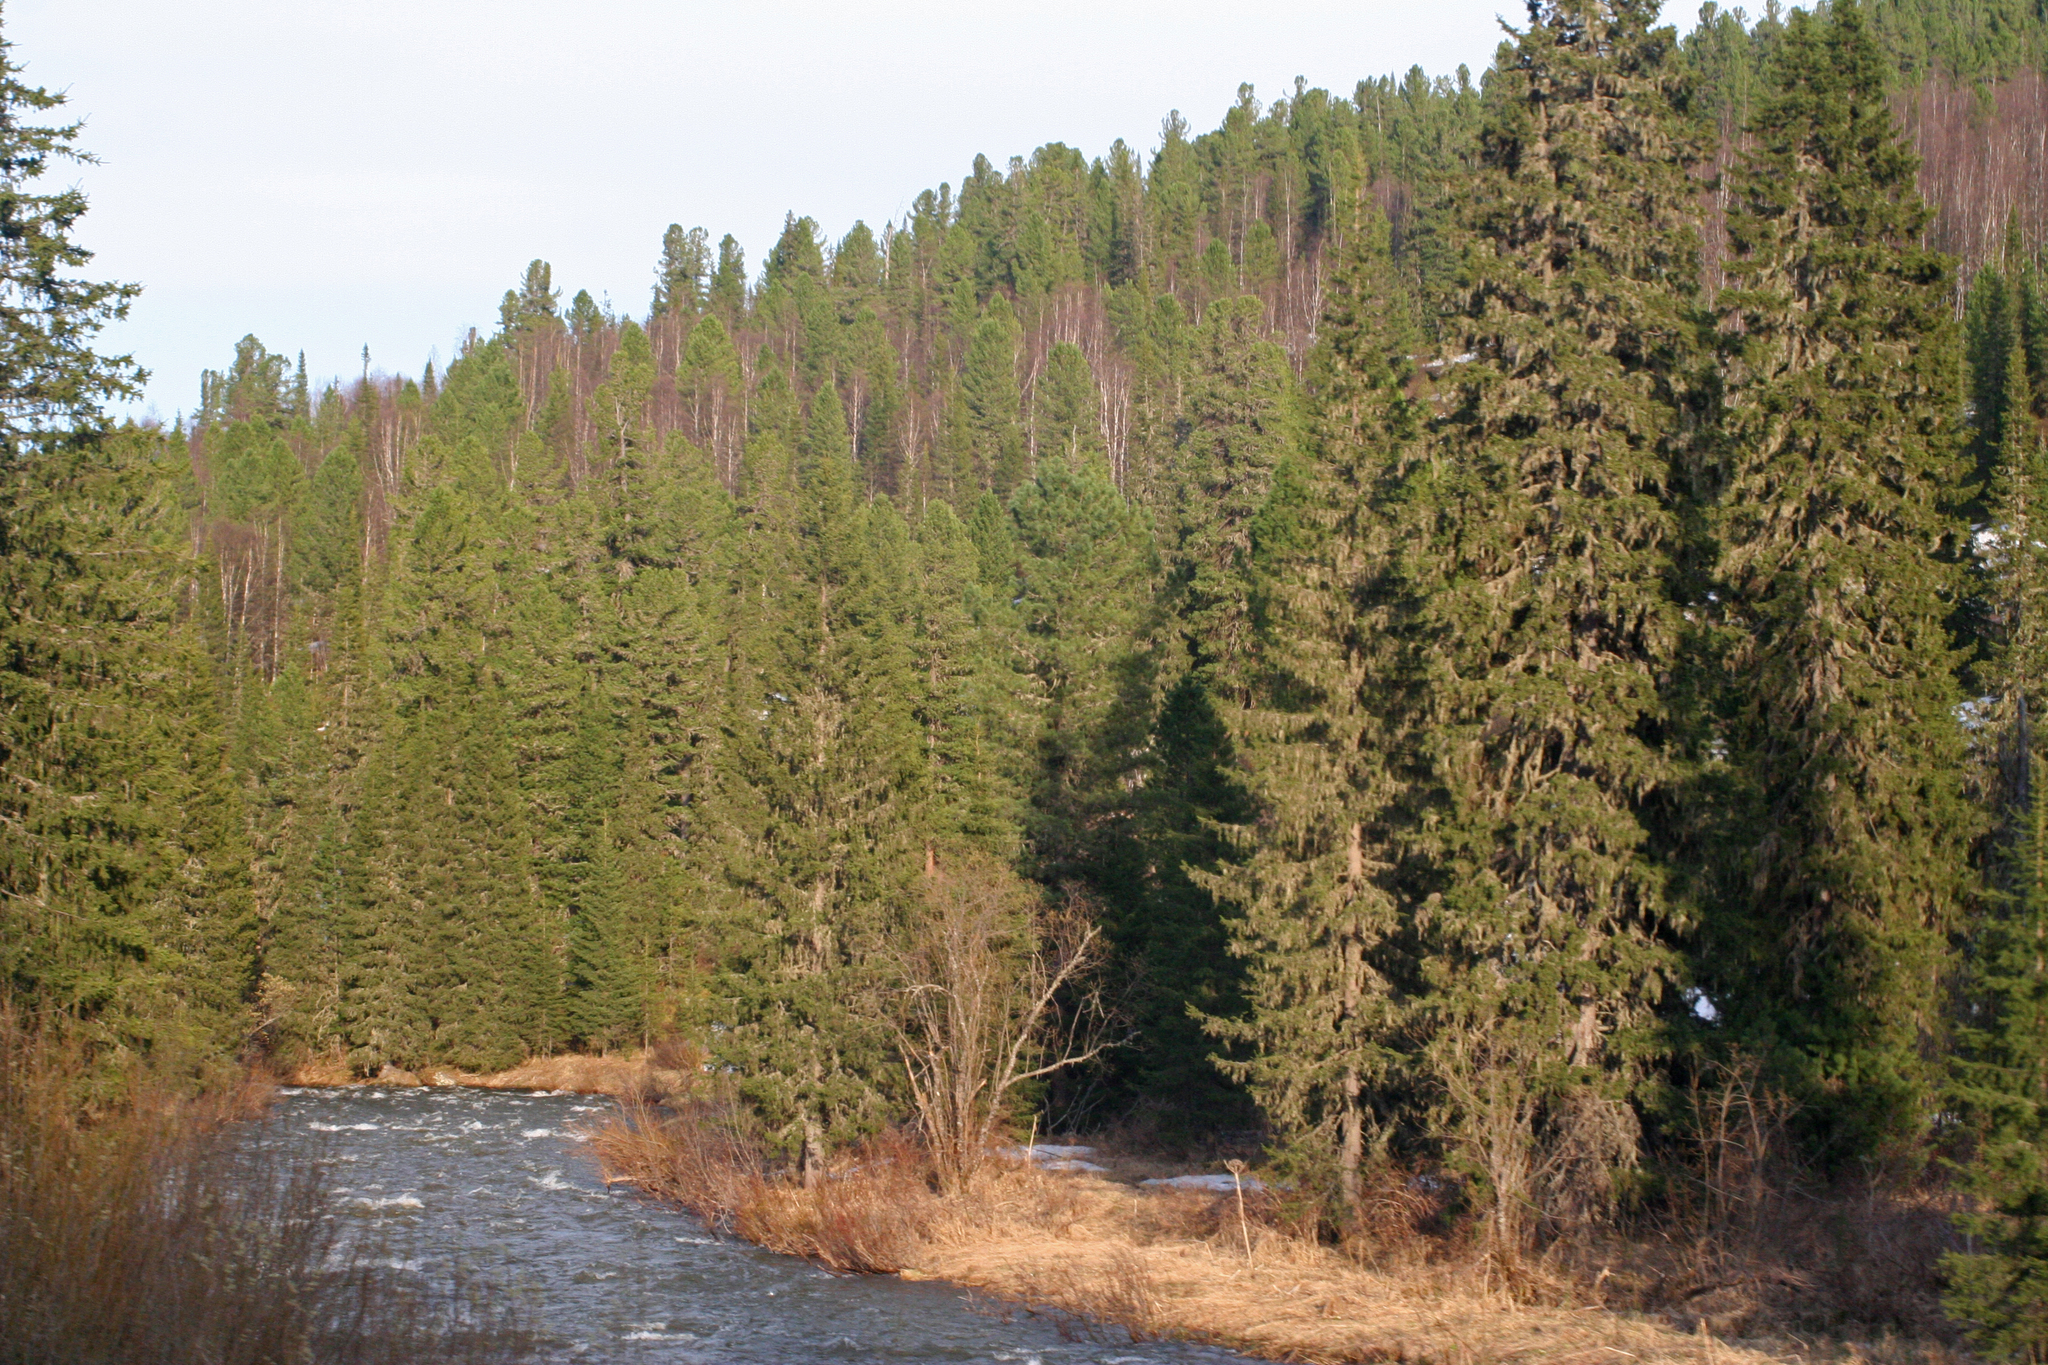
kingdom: Plantae
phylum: Tracheophyta
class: Pinopsida
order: Pinales
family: Pinaceae
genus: Picea
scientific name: Picea obovata
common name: Siberian spruce
